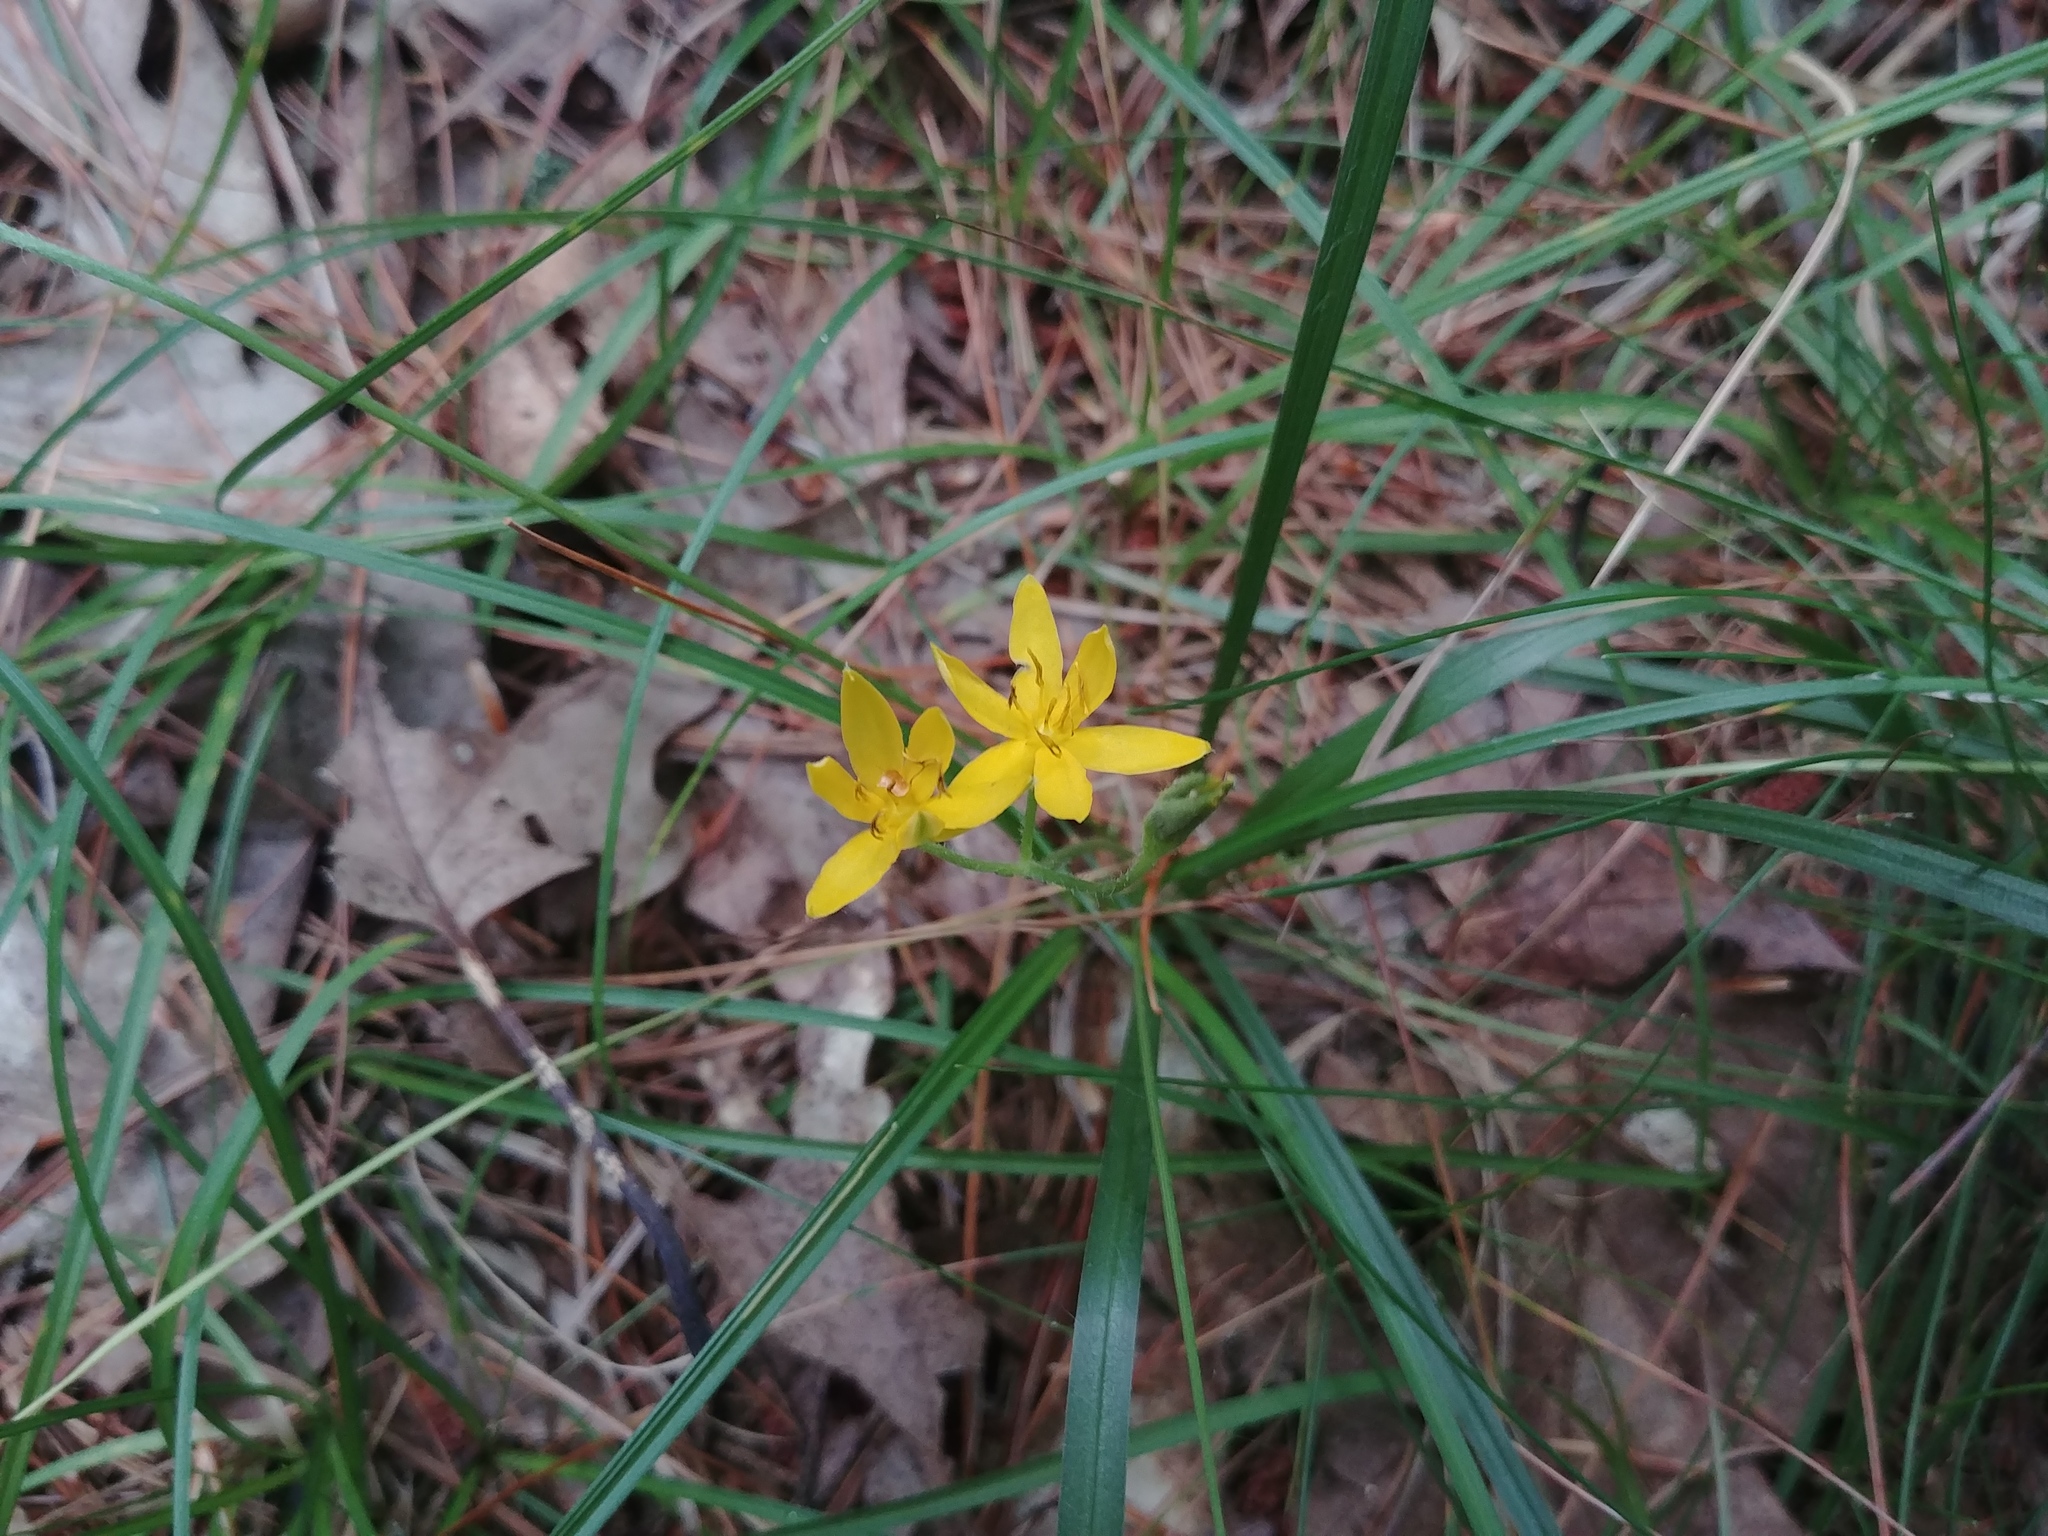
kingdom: Plantae
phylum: Tracheophyta
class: Liliopsida
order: Asparagales
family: Hypoxidaceae
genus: Hypoxis
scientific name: Hypoxis hirsuta
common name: Common goldstar
